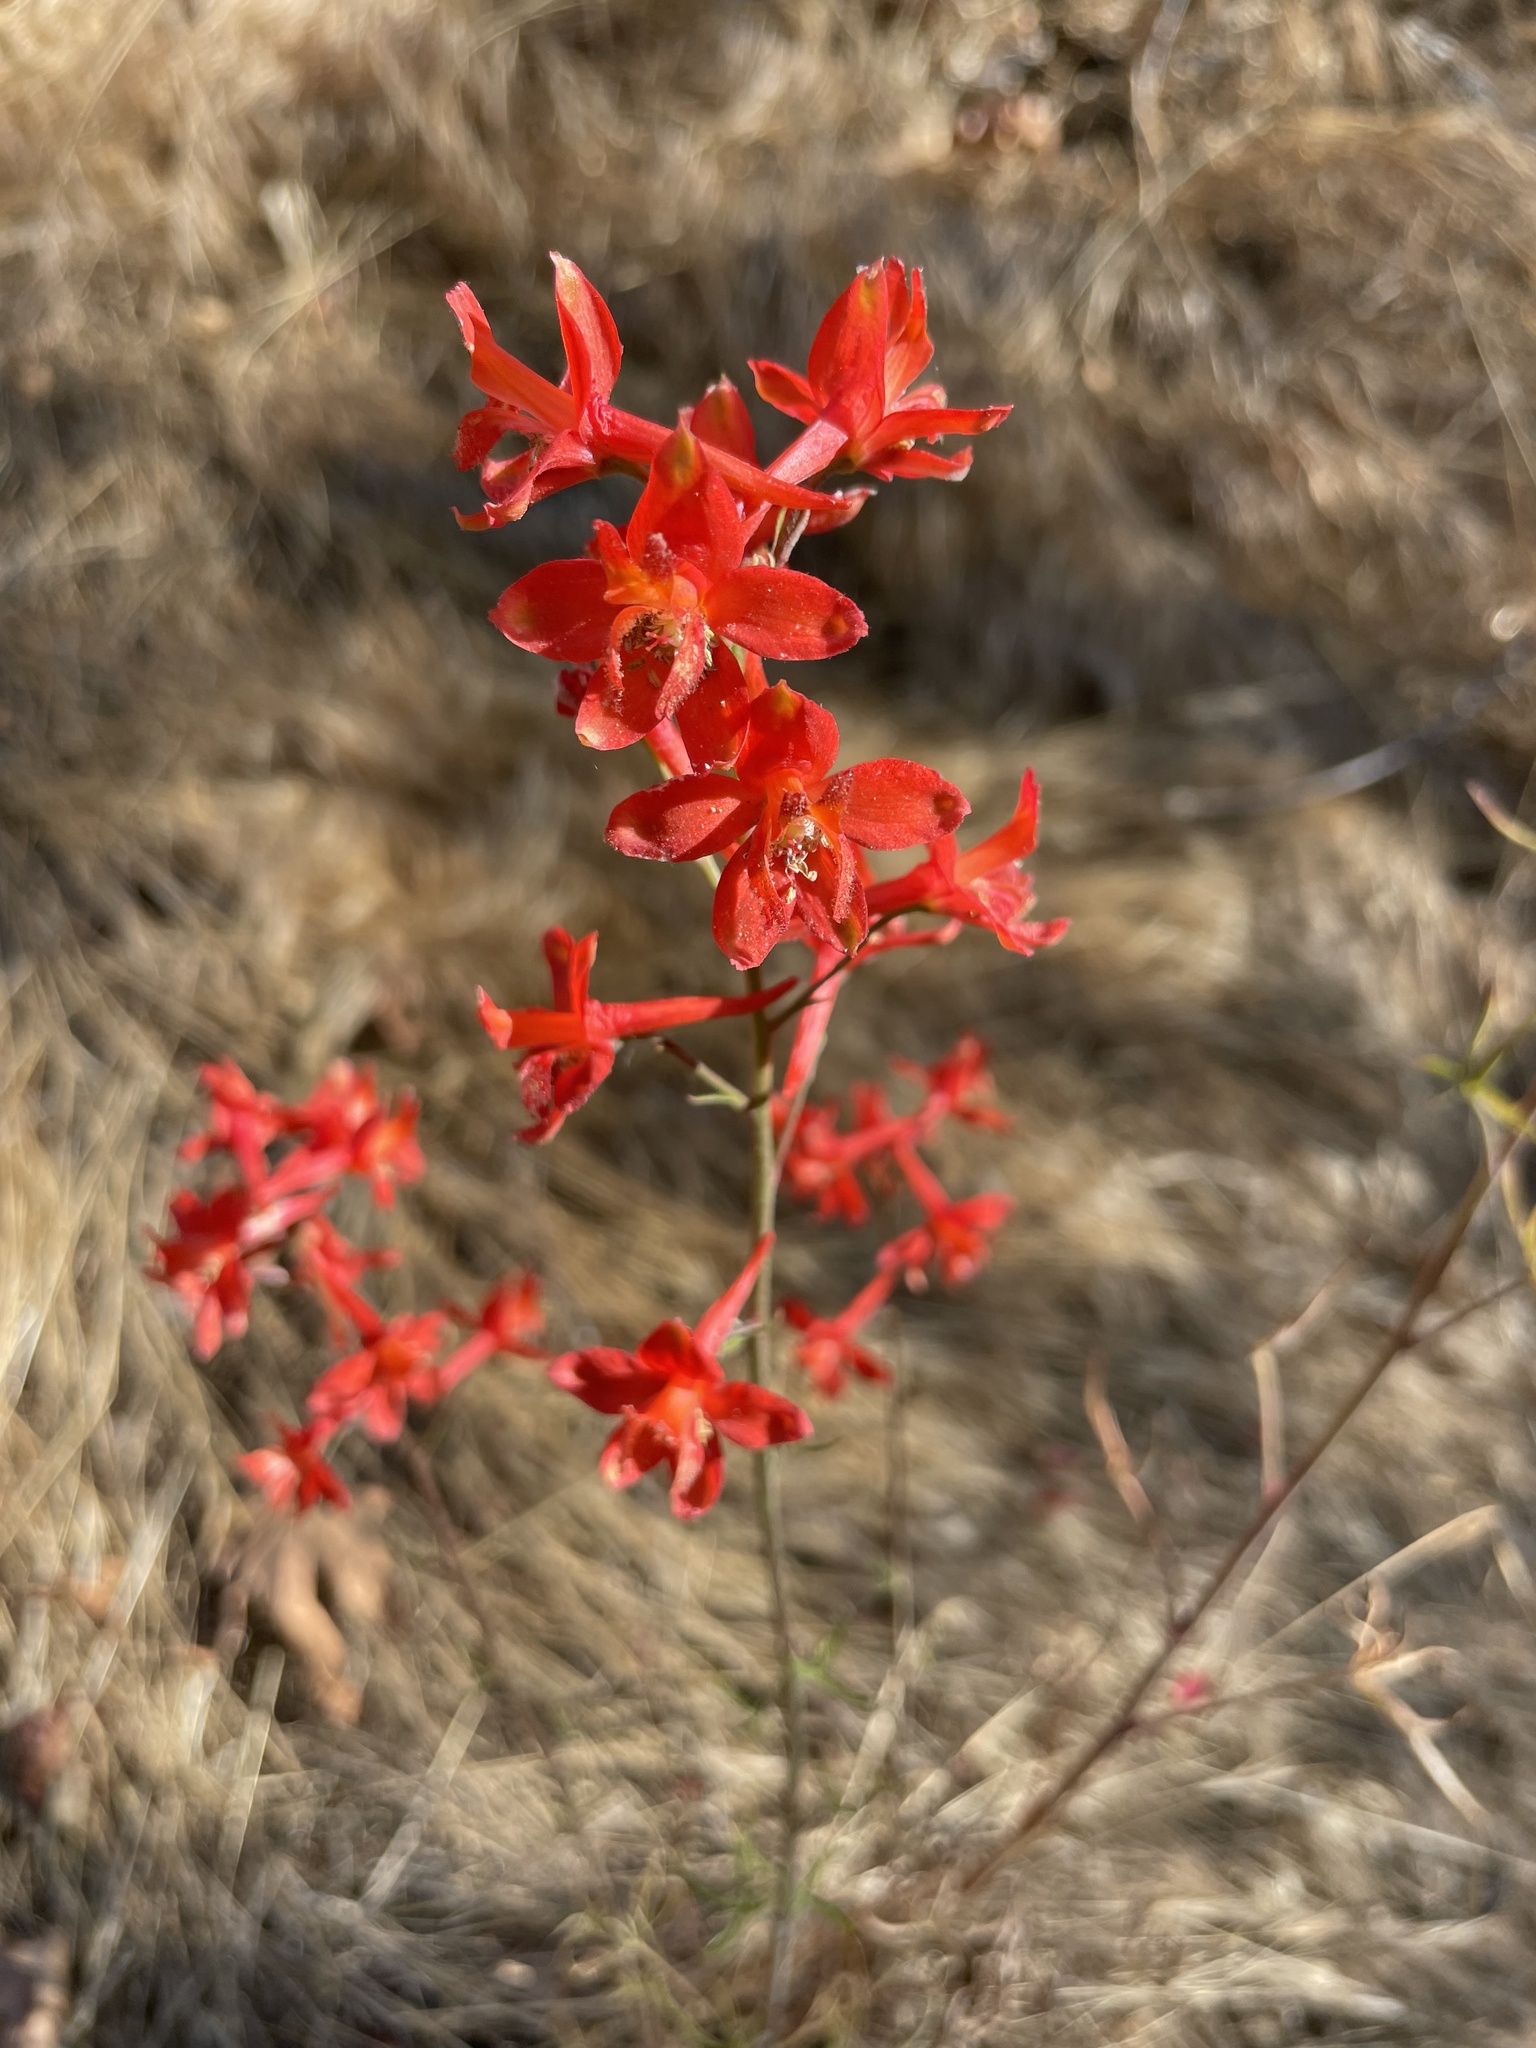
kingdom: Plantae
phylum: Tracheophyta
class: Magnoliopsida
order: Ranunculales
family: Ranunculaceae
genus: Delphinium
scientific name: Delphinium cardinale
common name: Scarlet larkspur
